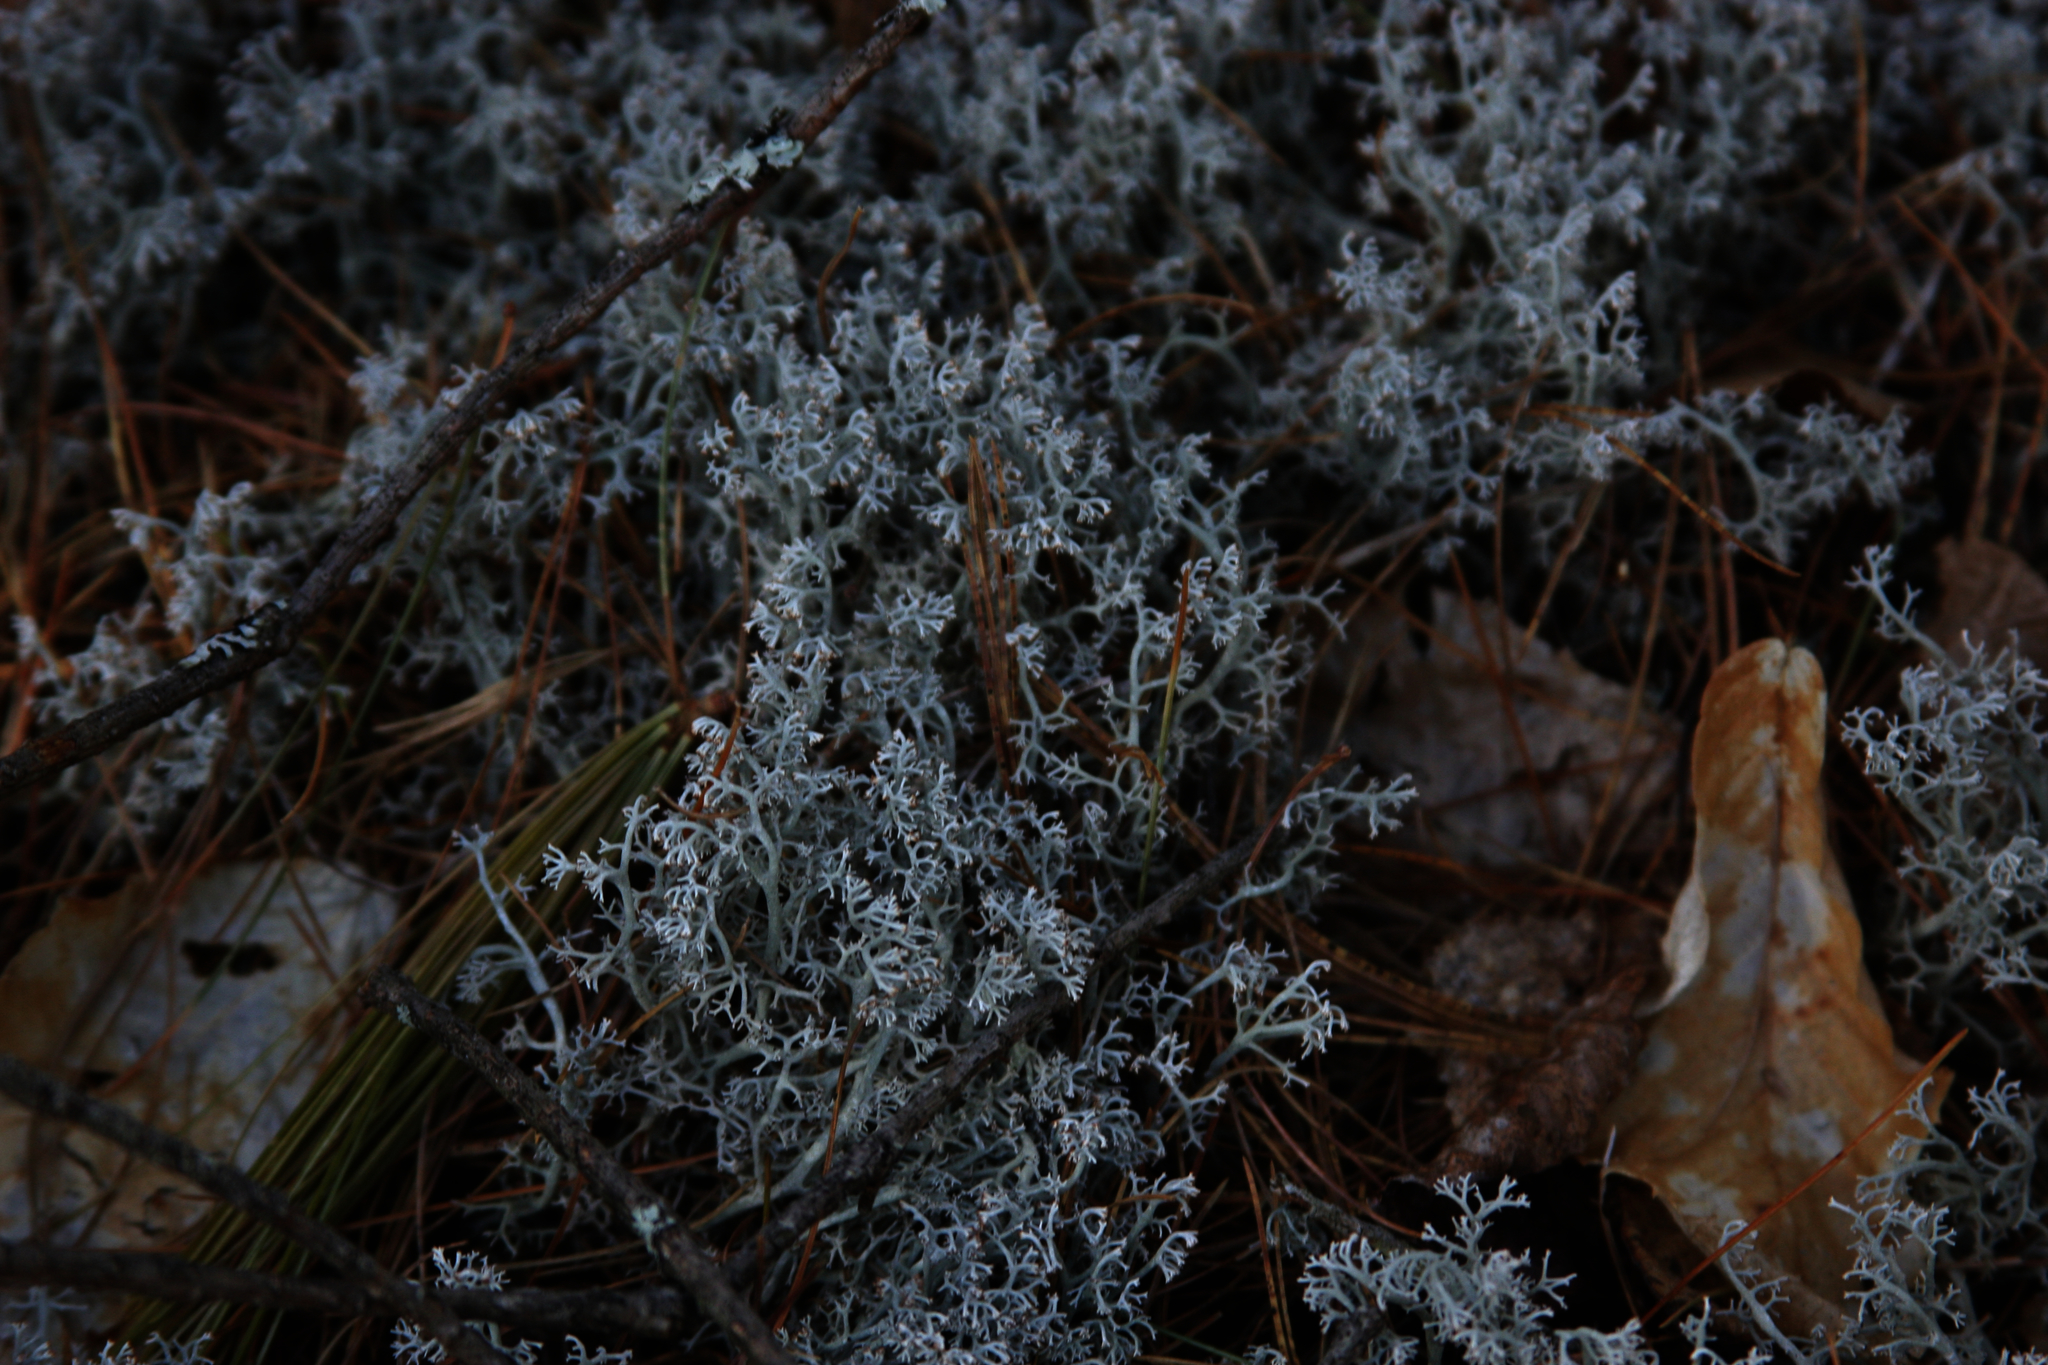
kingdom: Fungi
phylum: Ascomycota
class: Lecanoromycetes
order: Lecanorales
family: Cladoniaceae
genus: Cladonia
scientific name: Cladonia rangiferina
